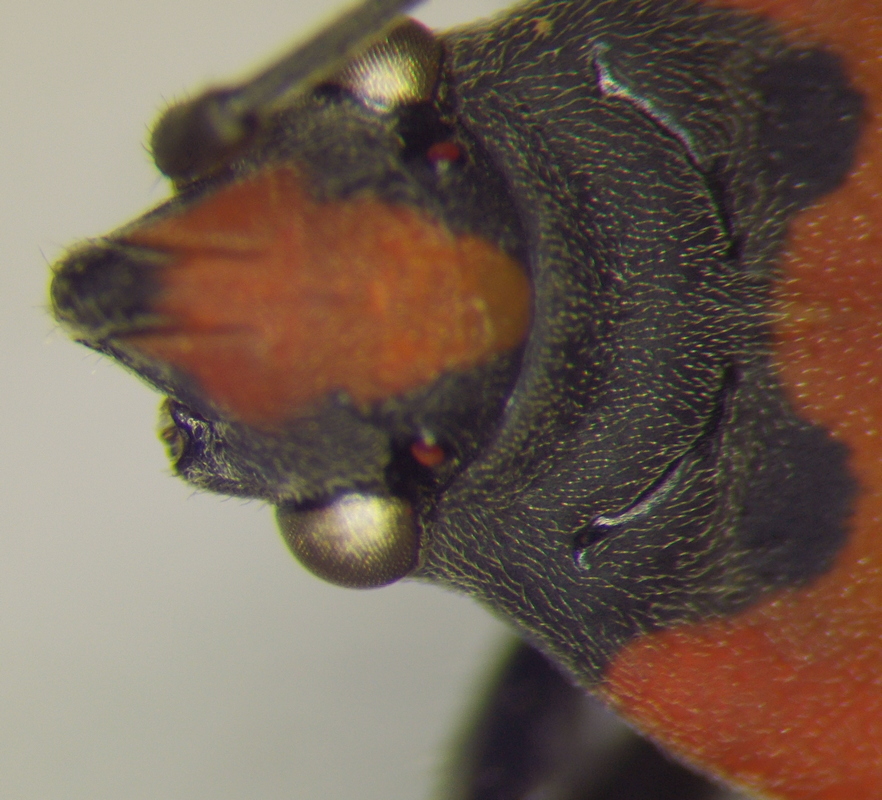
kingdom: Animalia
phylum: Arthropoda
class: Insecta
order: Hemiptera
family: Lygaeidae
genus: Lygaeus
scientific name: Lygaeus equestris
